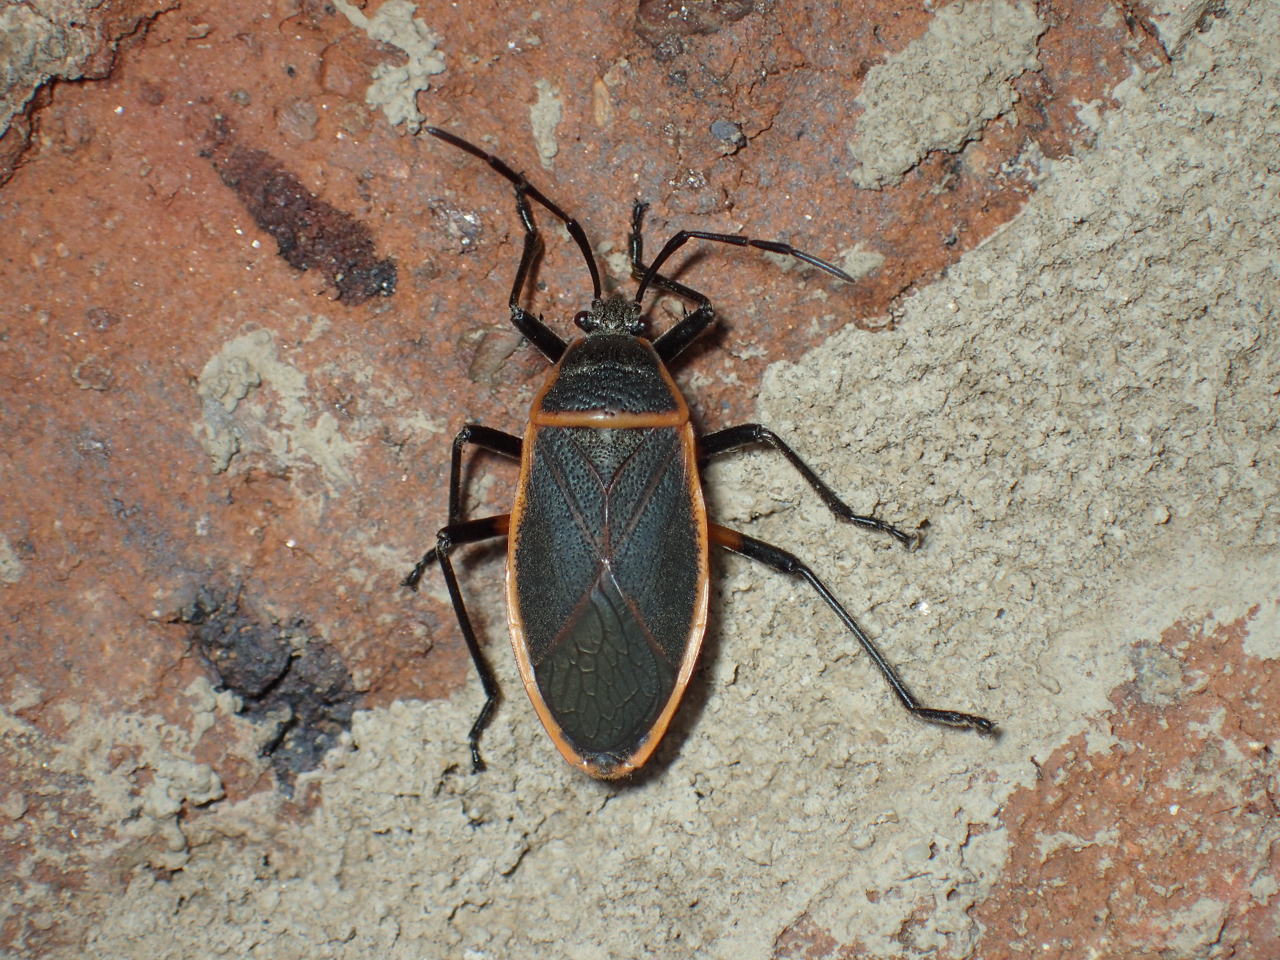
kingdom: Animalia
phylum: Arthropoda
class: Insecta
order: Hemiptera
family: Largidae
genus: Largus
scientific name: Largus succinctus
